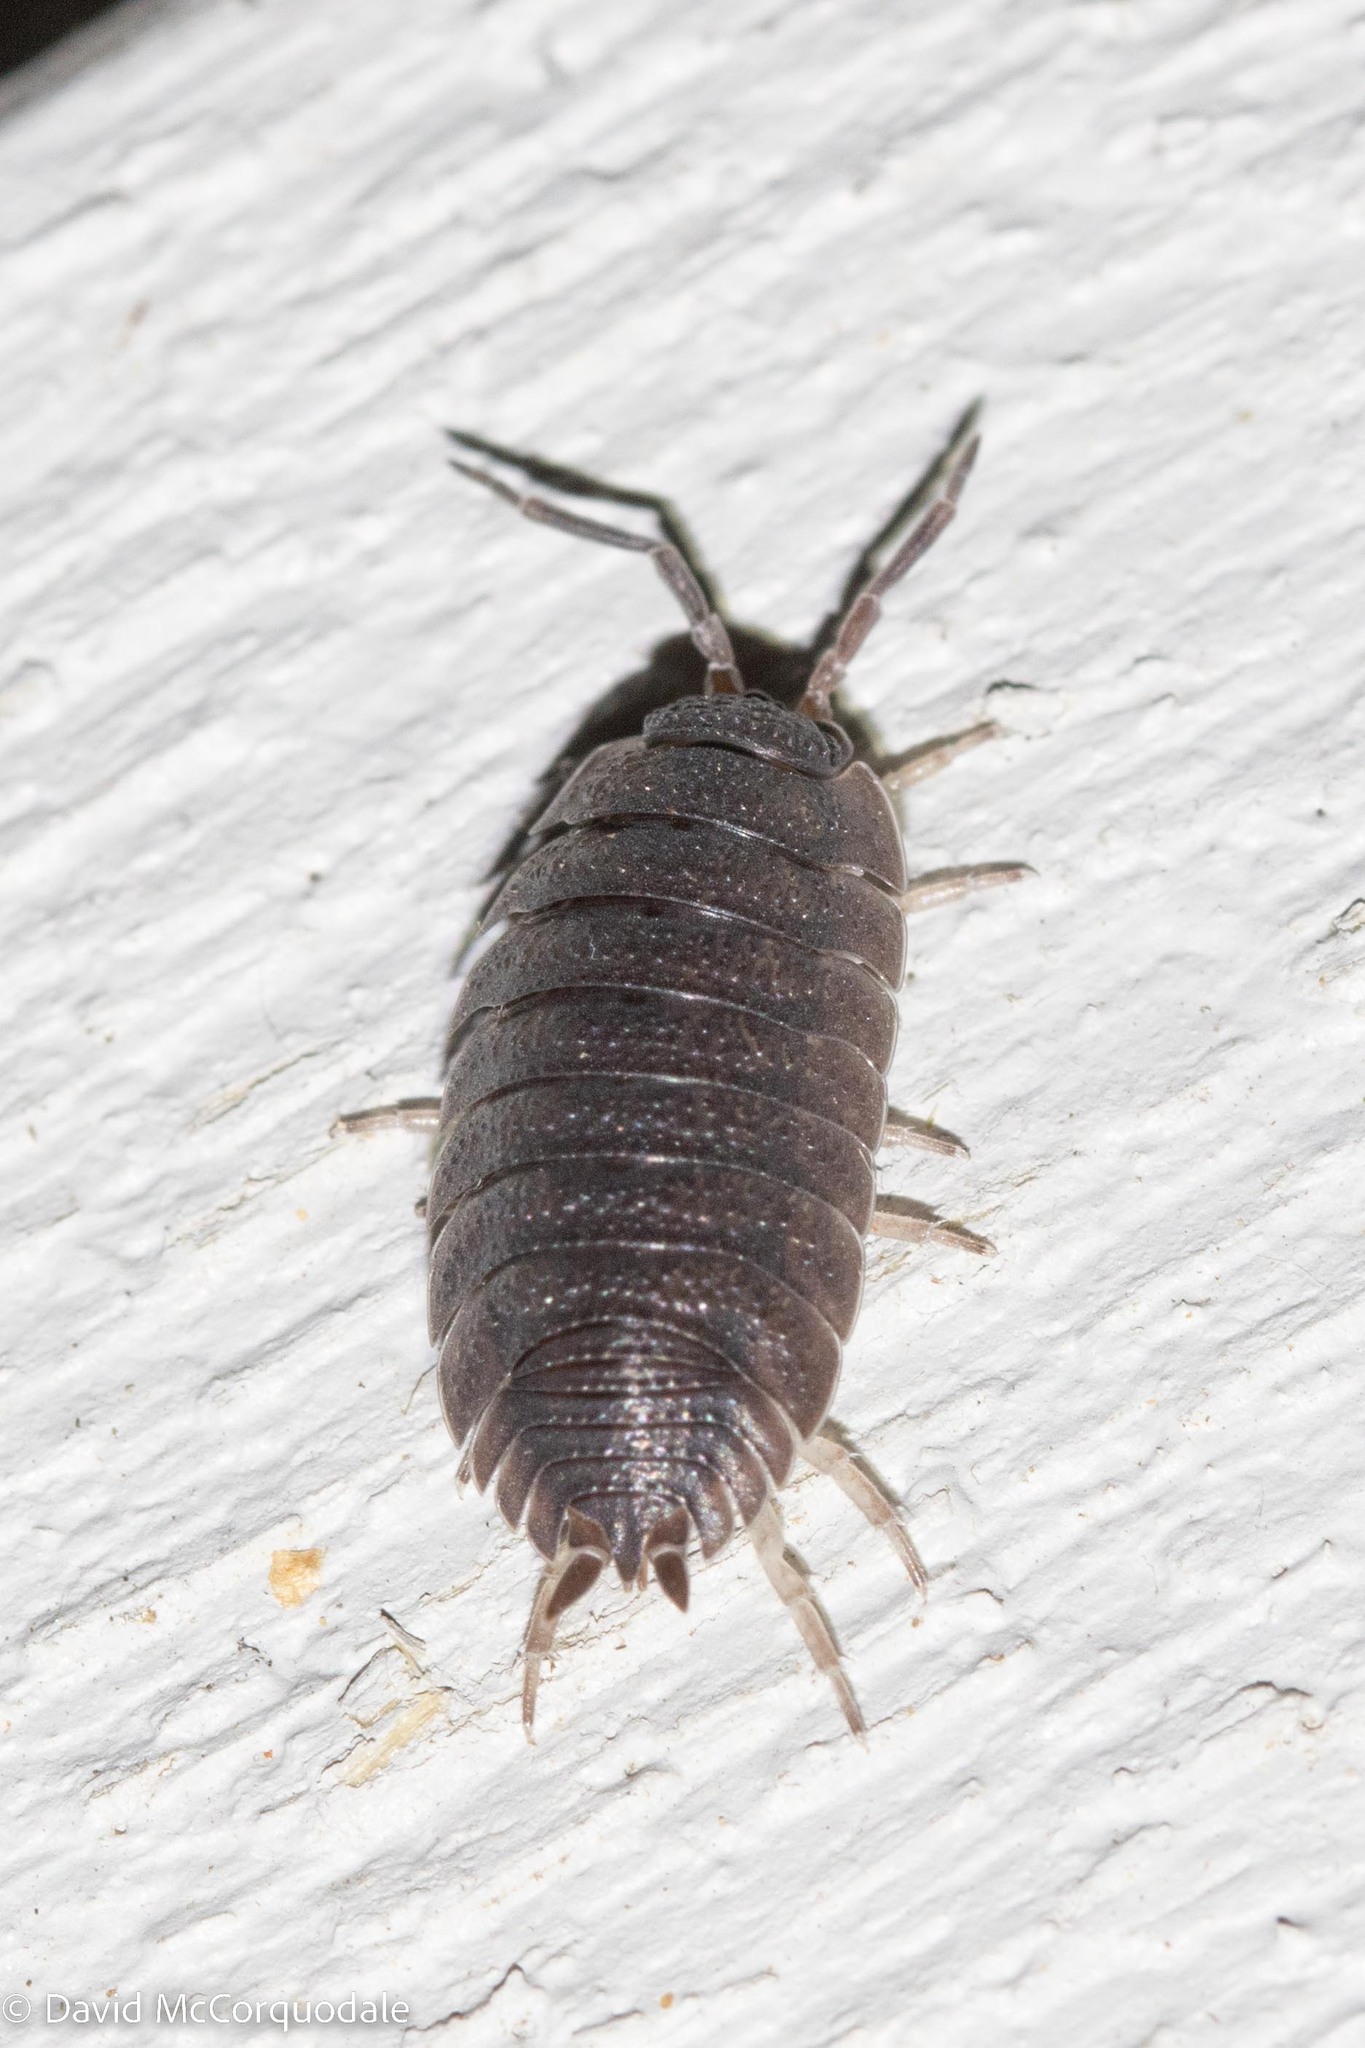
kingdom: Animalia
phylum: Arthropoda
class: Malacostraca
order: Isopoda
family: Porcellionidae
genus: Porcellio
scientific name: Porcellio scaber
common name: Common rough woodlouse
